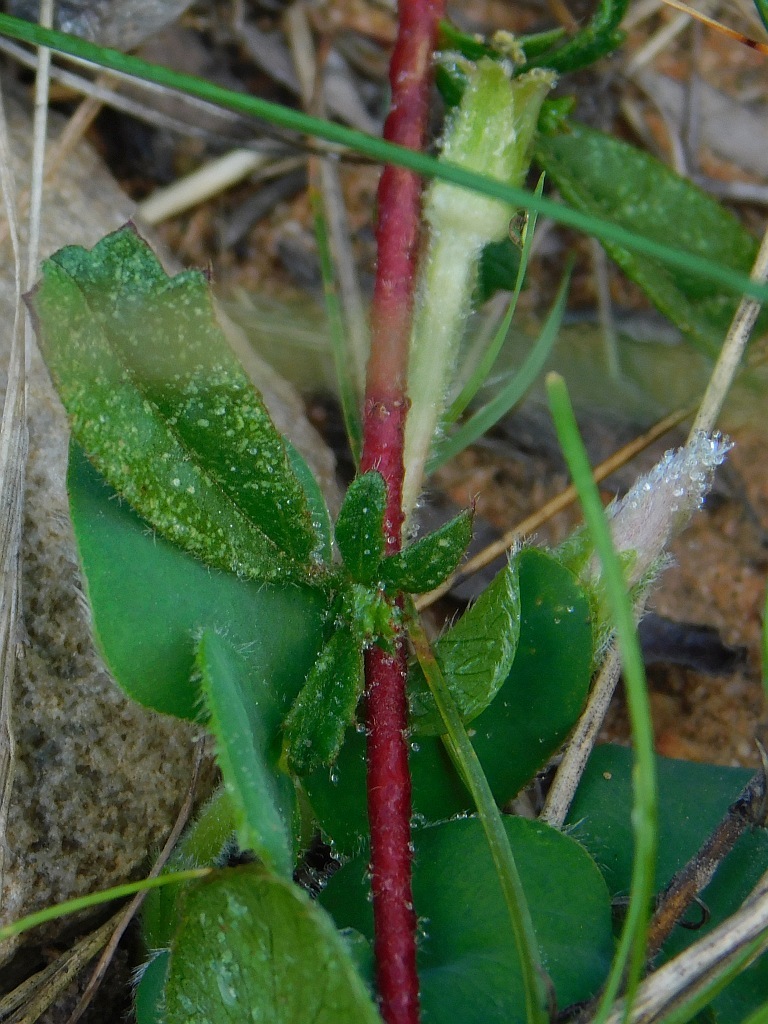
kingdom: Plantae
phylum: Tracheophyta
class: Magnoliopsida
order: Oxalidales
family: Oxalidaceae
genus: Oxalis
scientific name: Oxalis purpurea
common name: Purple woodsorrel
